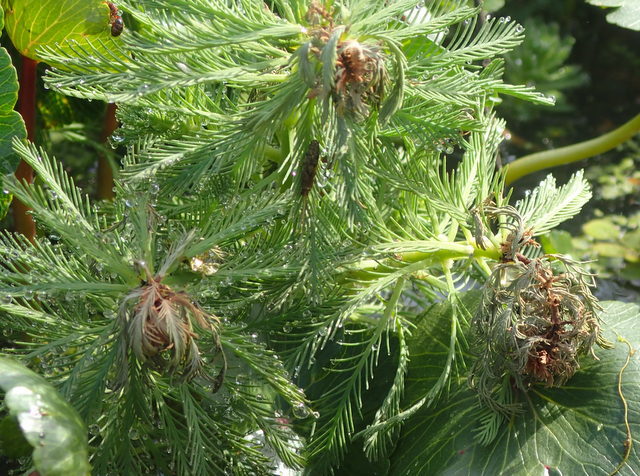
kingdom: Plantae
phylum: Tracheophyta
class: Magnoliopsida
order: Saxifragales
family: Haloragaceae
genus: Myriophyllum
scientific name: Myriophyllum aquaticum
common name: Parrot's feather
